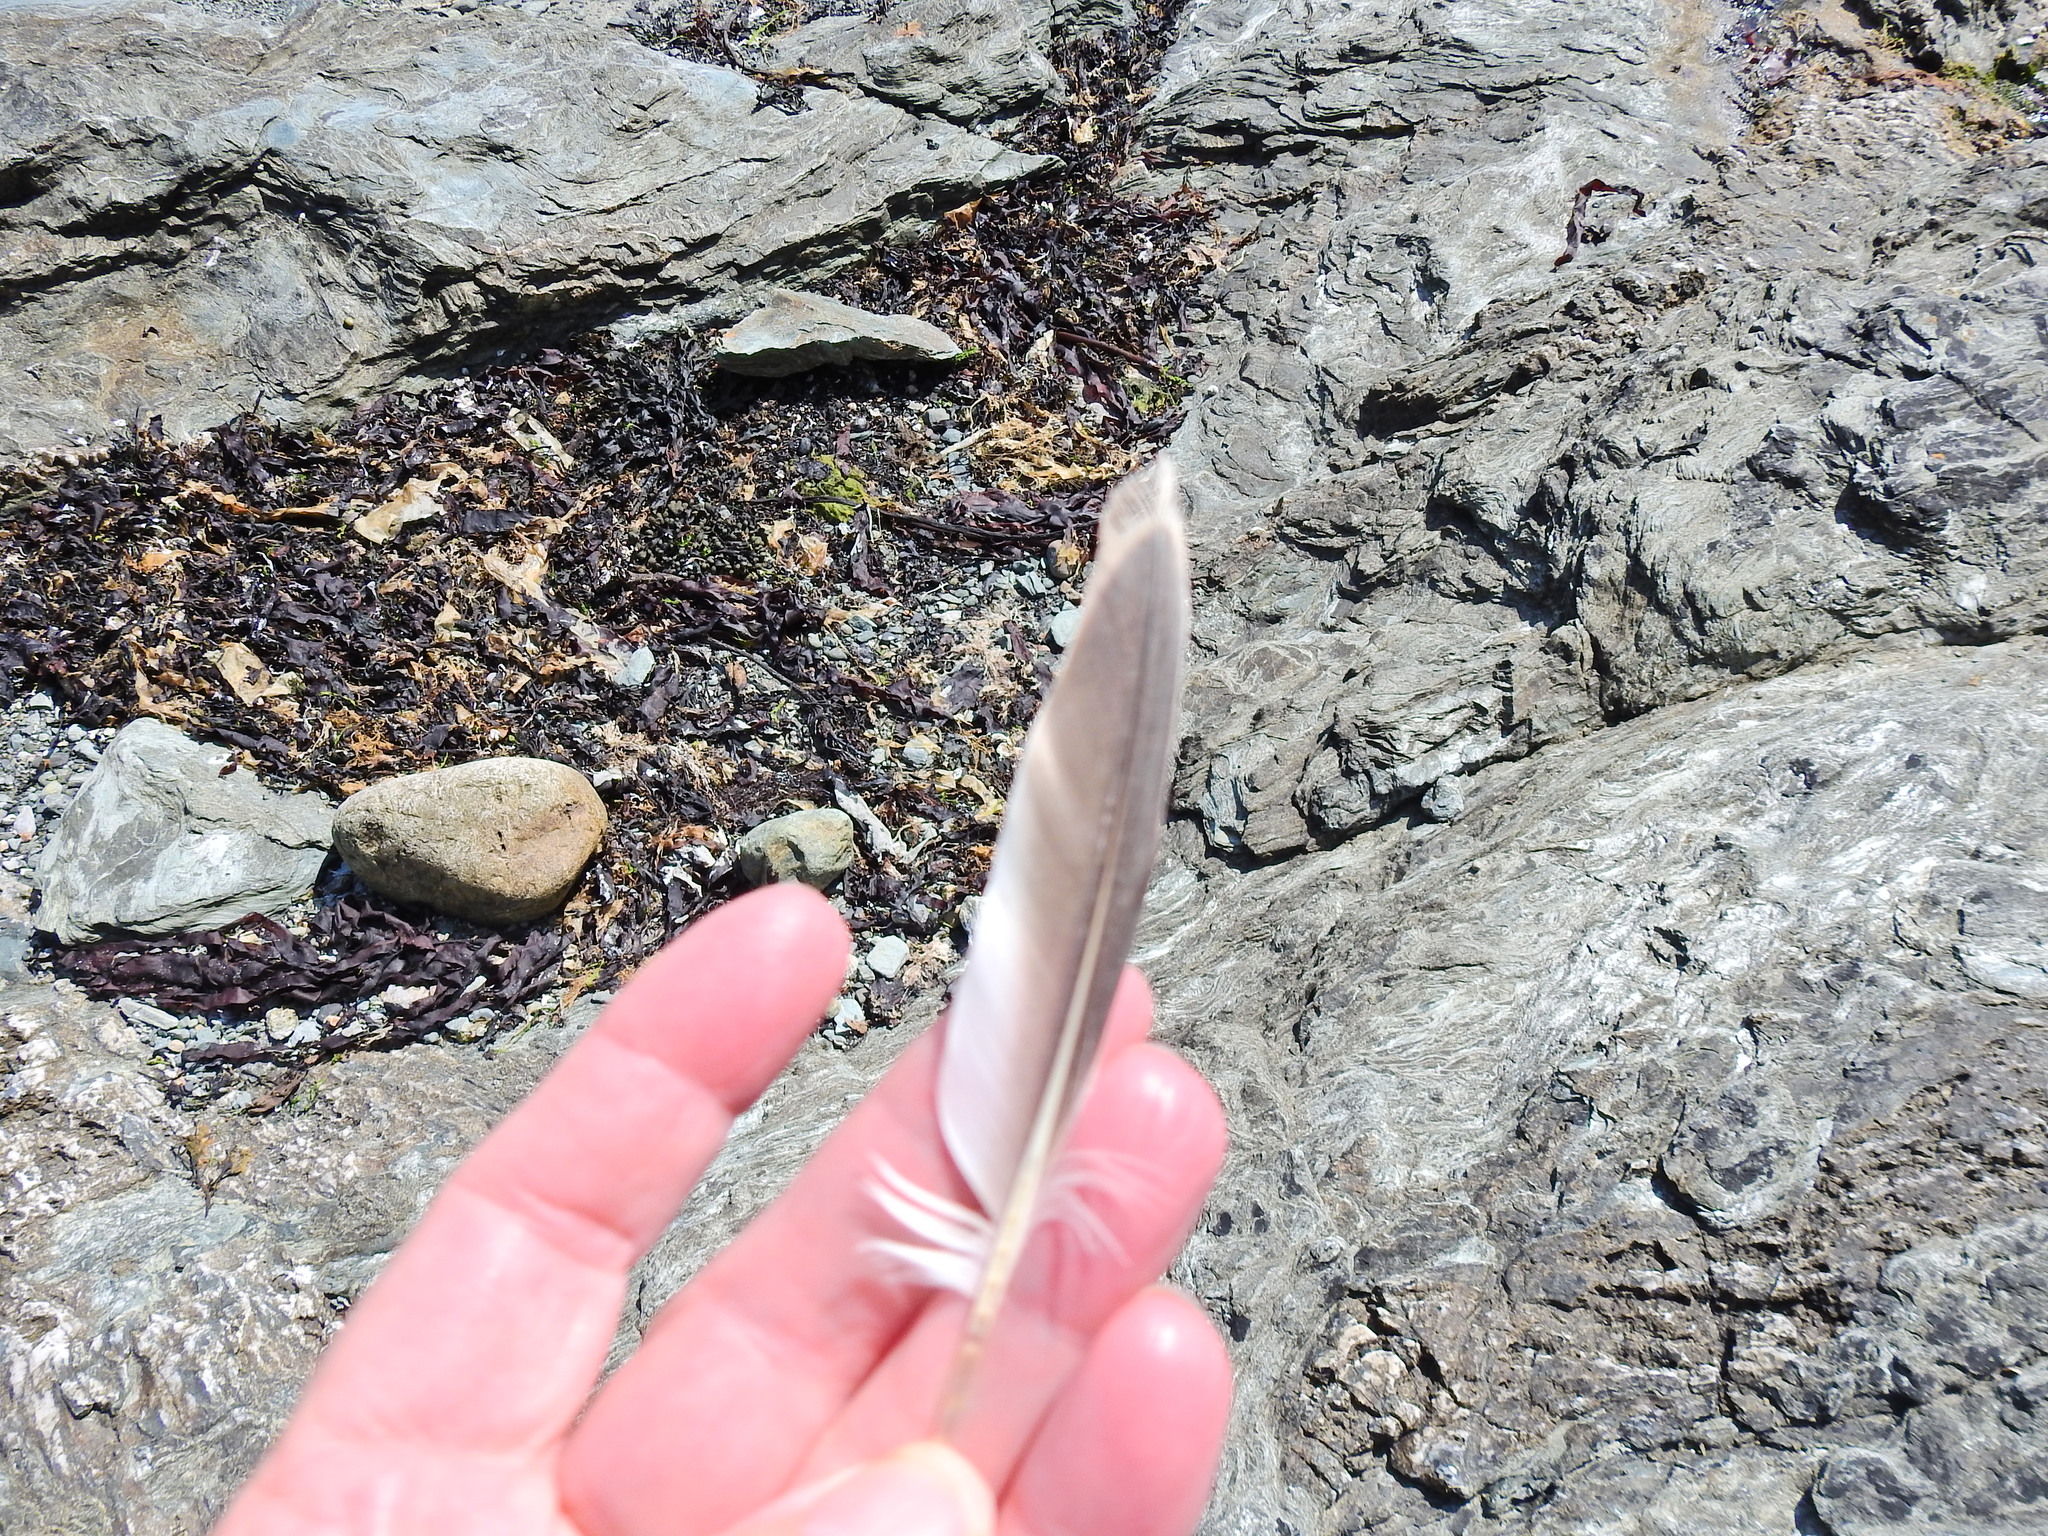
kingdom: Animalia
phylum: Chordata
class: Aves
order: Charadriiformes
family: Alcidae
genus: Uria
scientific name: Uria aalge
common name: Common murre
